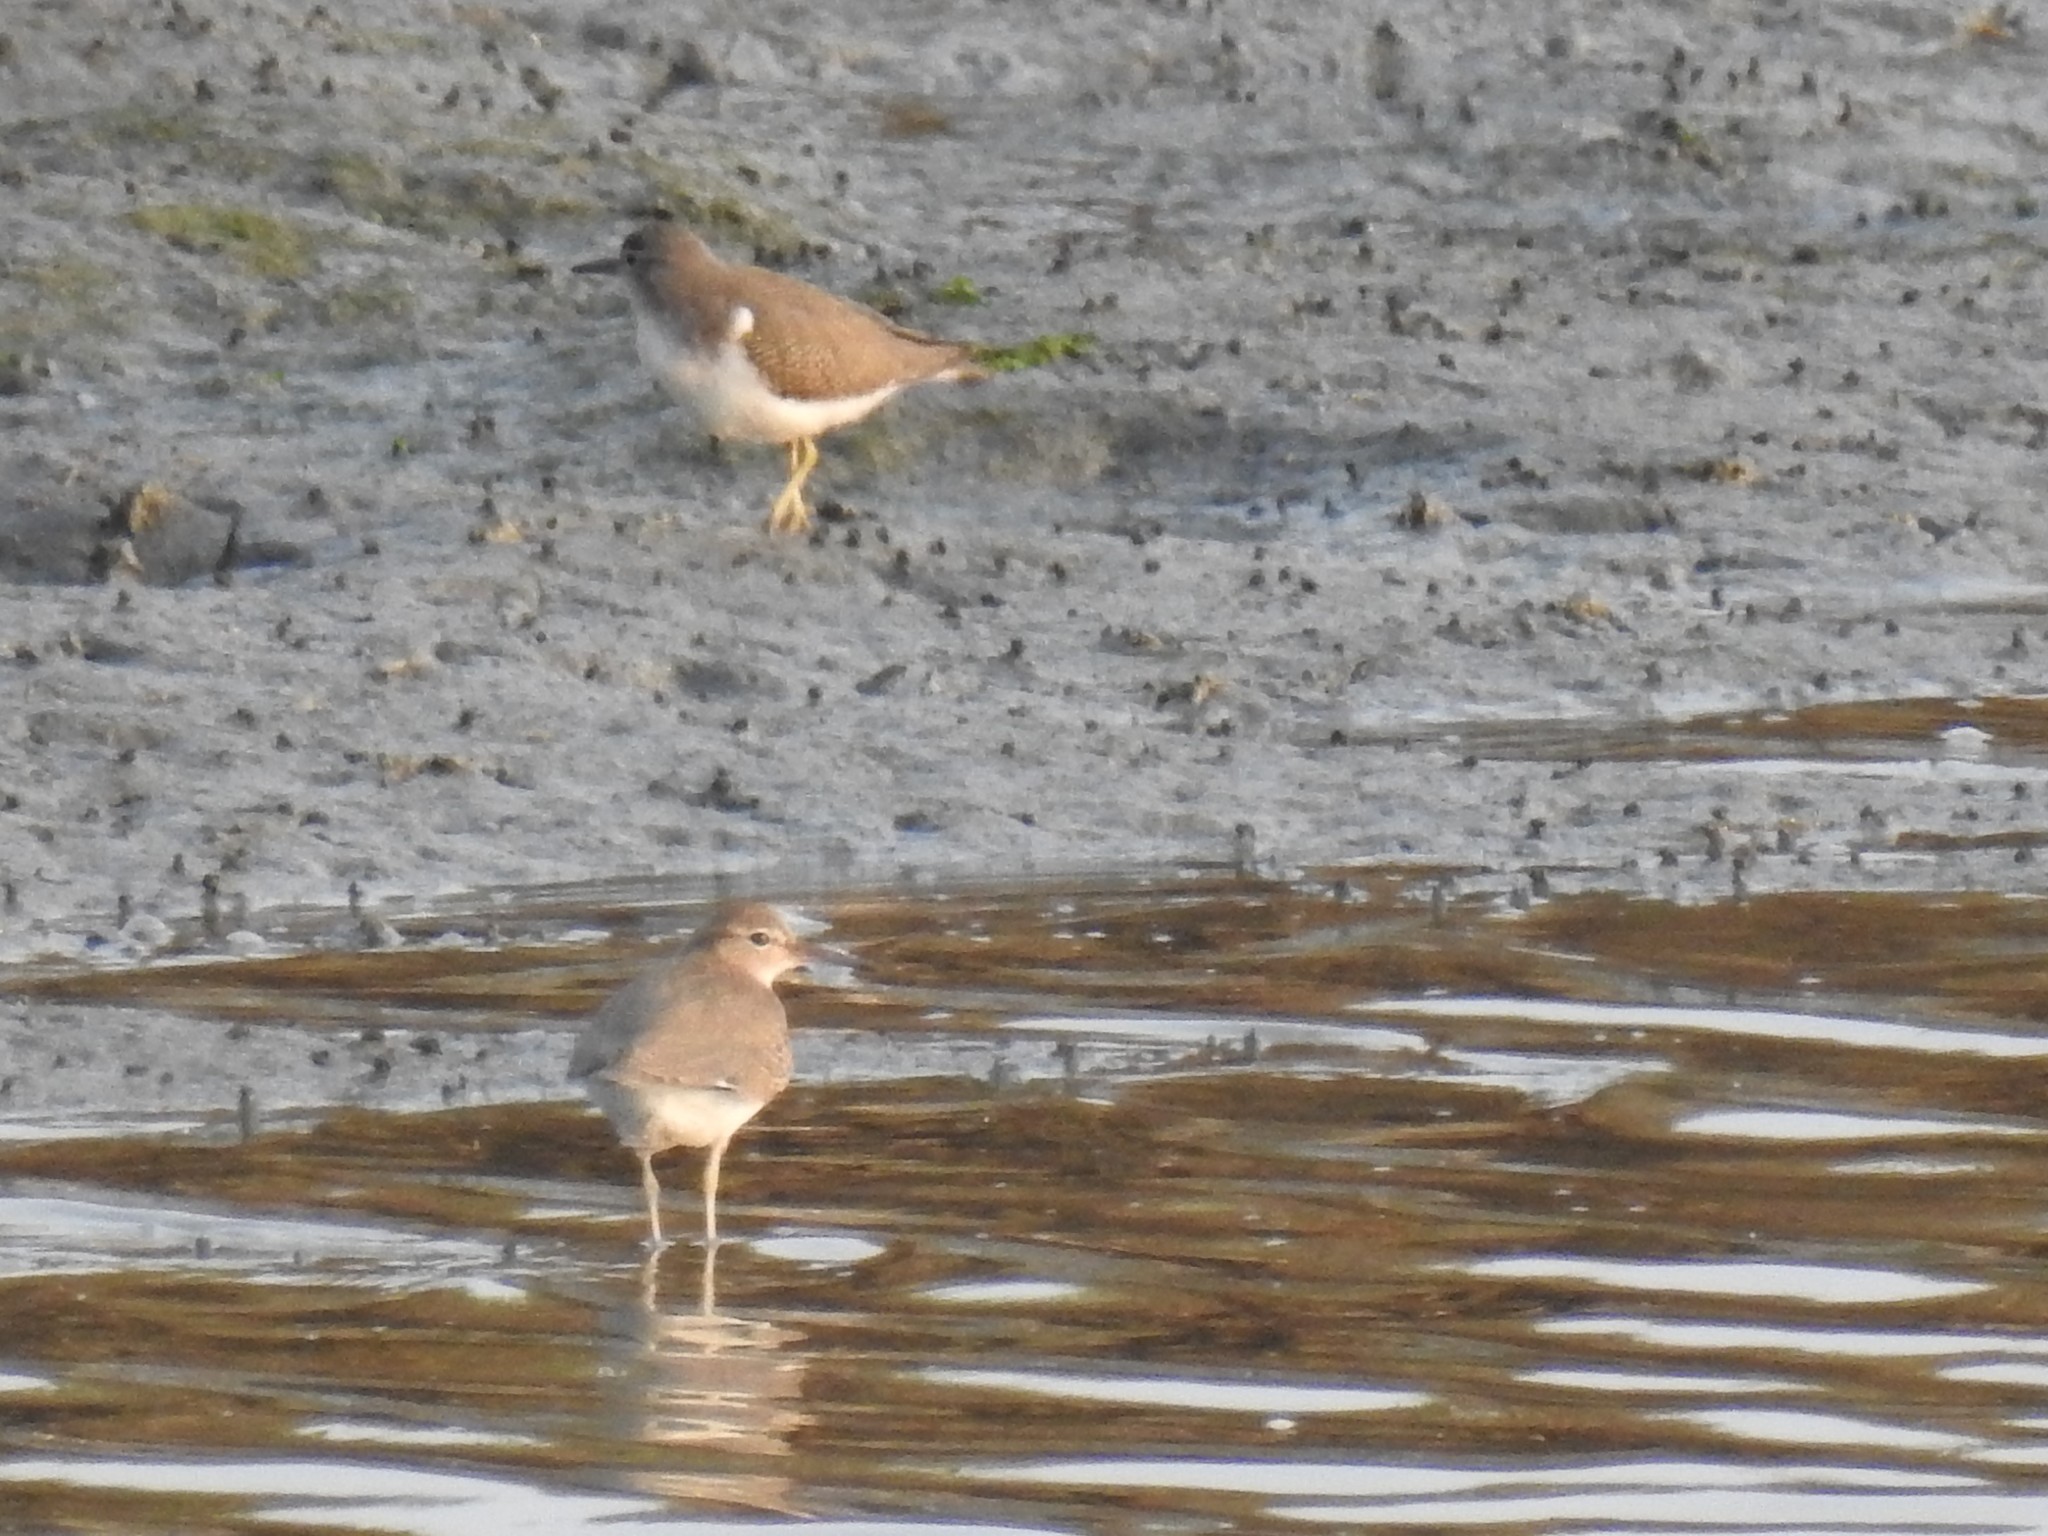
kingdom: Animalia
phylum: Chordata
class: Aves
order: Charadriiformes
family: Scolopacidae
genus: Actitis
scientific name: Actitis macularius
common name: Spotted sandpiper
